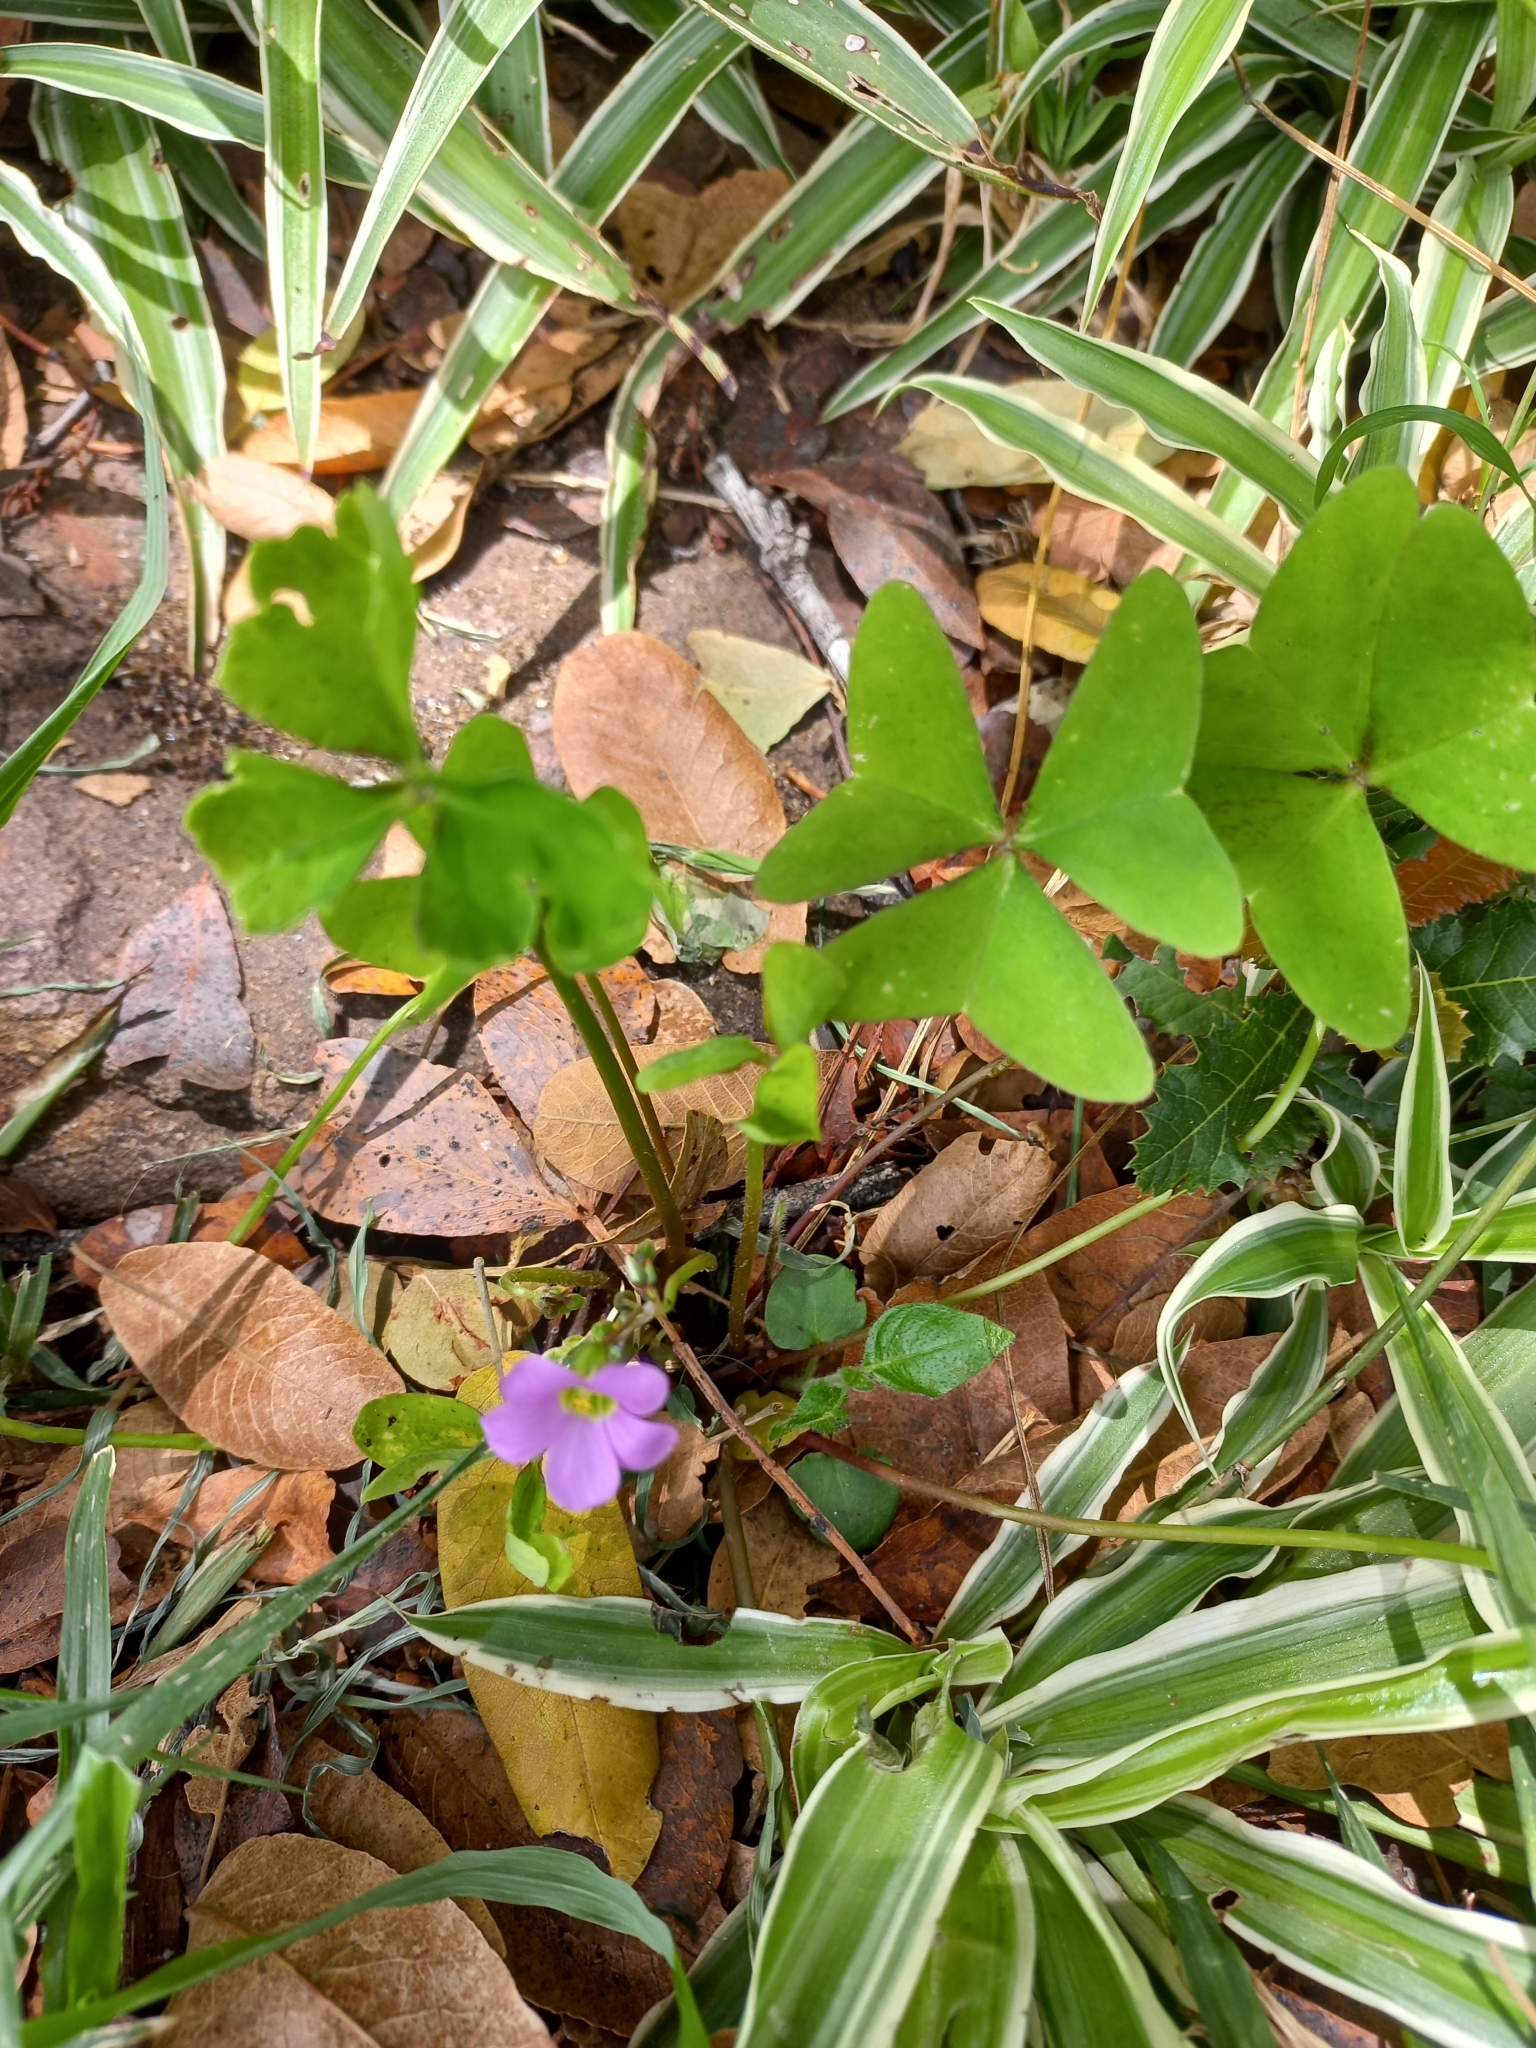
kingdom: Plantae
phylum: Tracheophyta
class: Magnoliopsida
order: Oxalidales
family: Oxalidaceae
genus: Oxalis
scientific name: Oxalis latifolia
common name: Garden pink-sorrel
